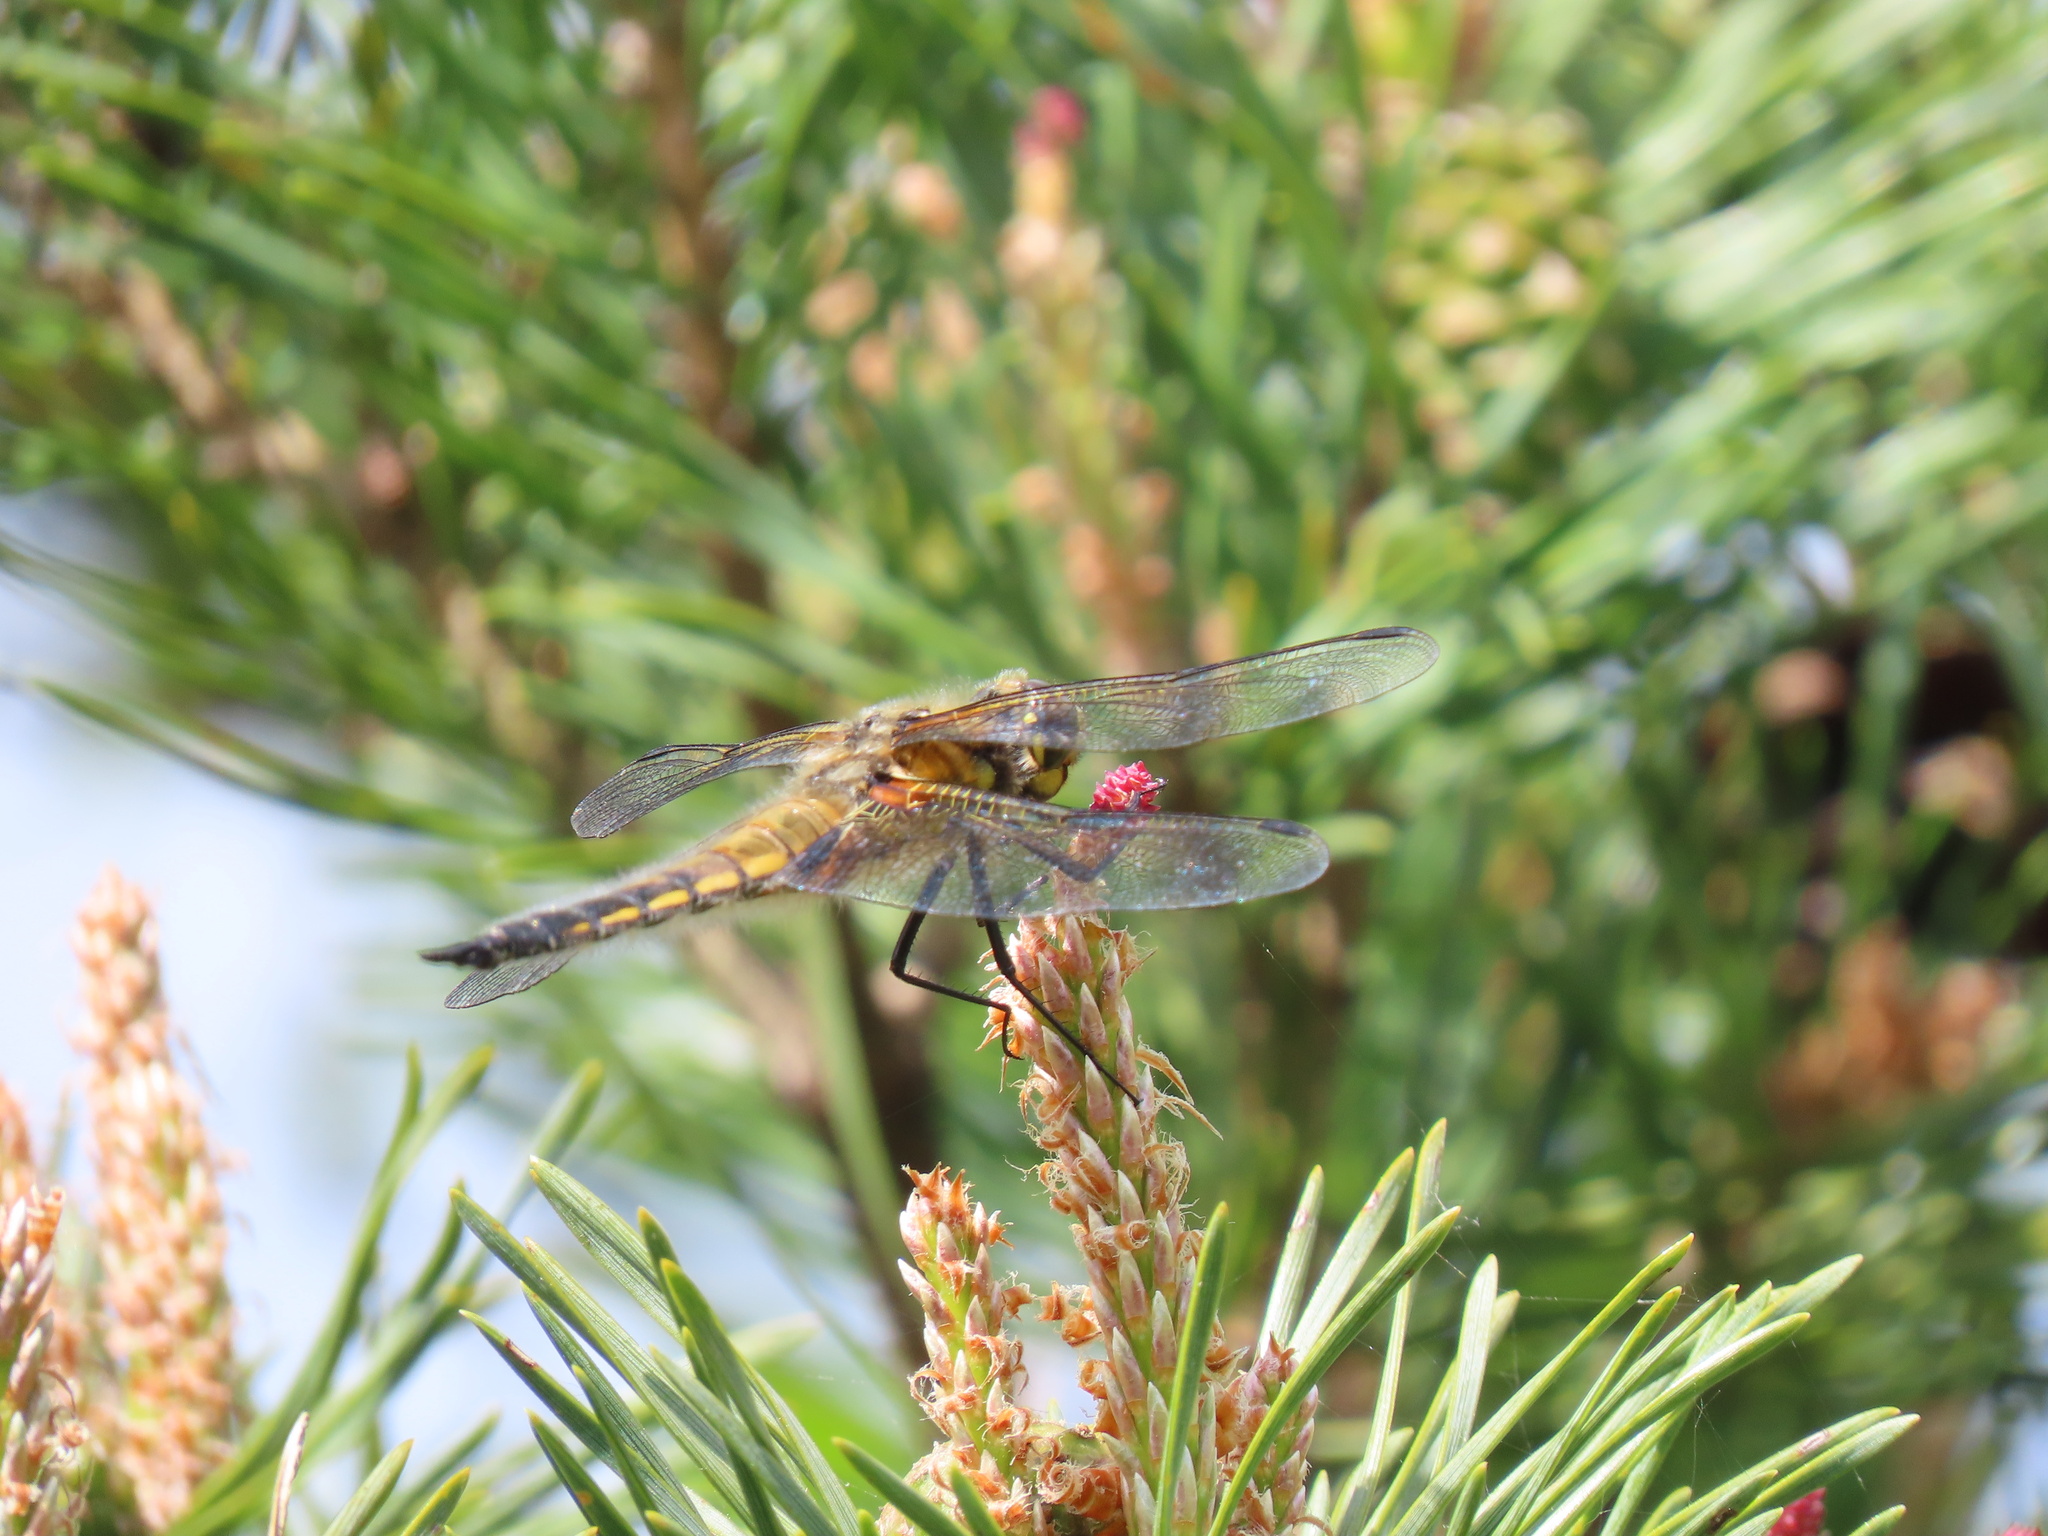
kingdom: Animalia
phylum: Arthropoda
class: Insecta
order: Odonata
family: Libellulidae
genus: Libellula
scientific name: Libellula quadrimaculata
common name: Four-spotted chaser
